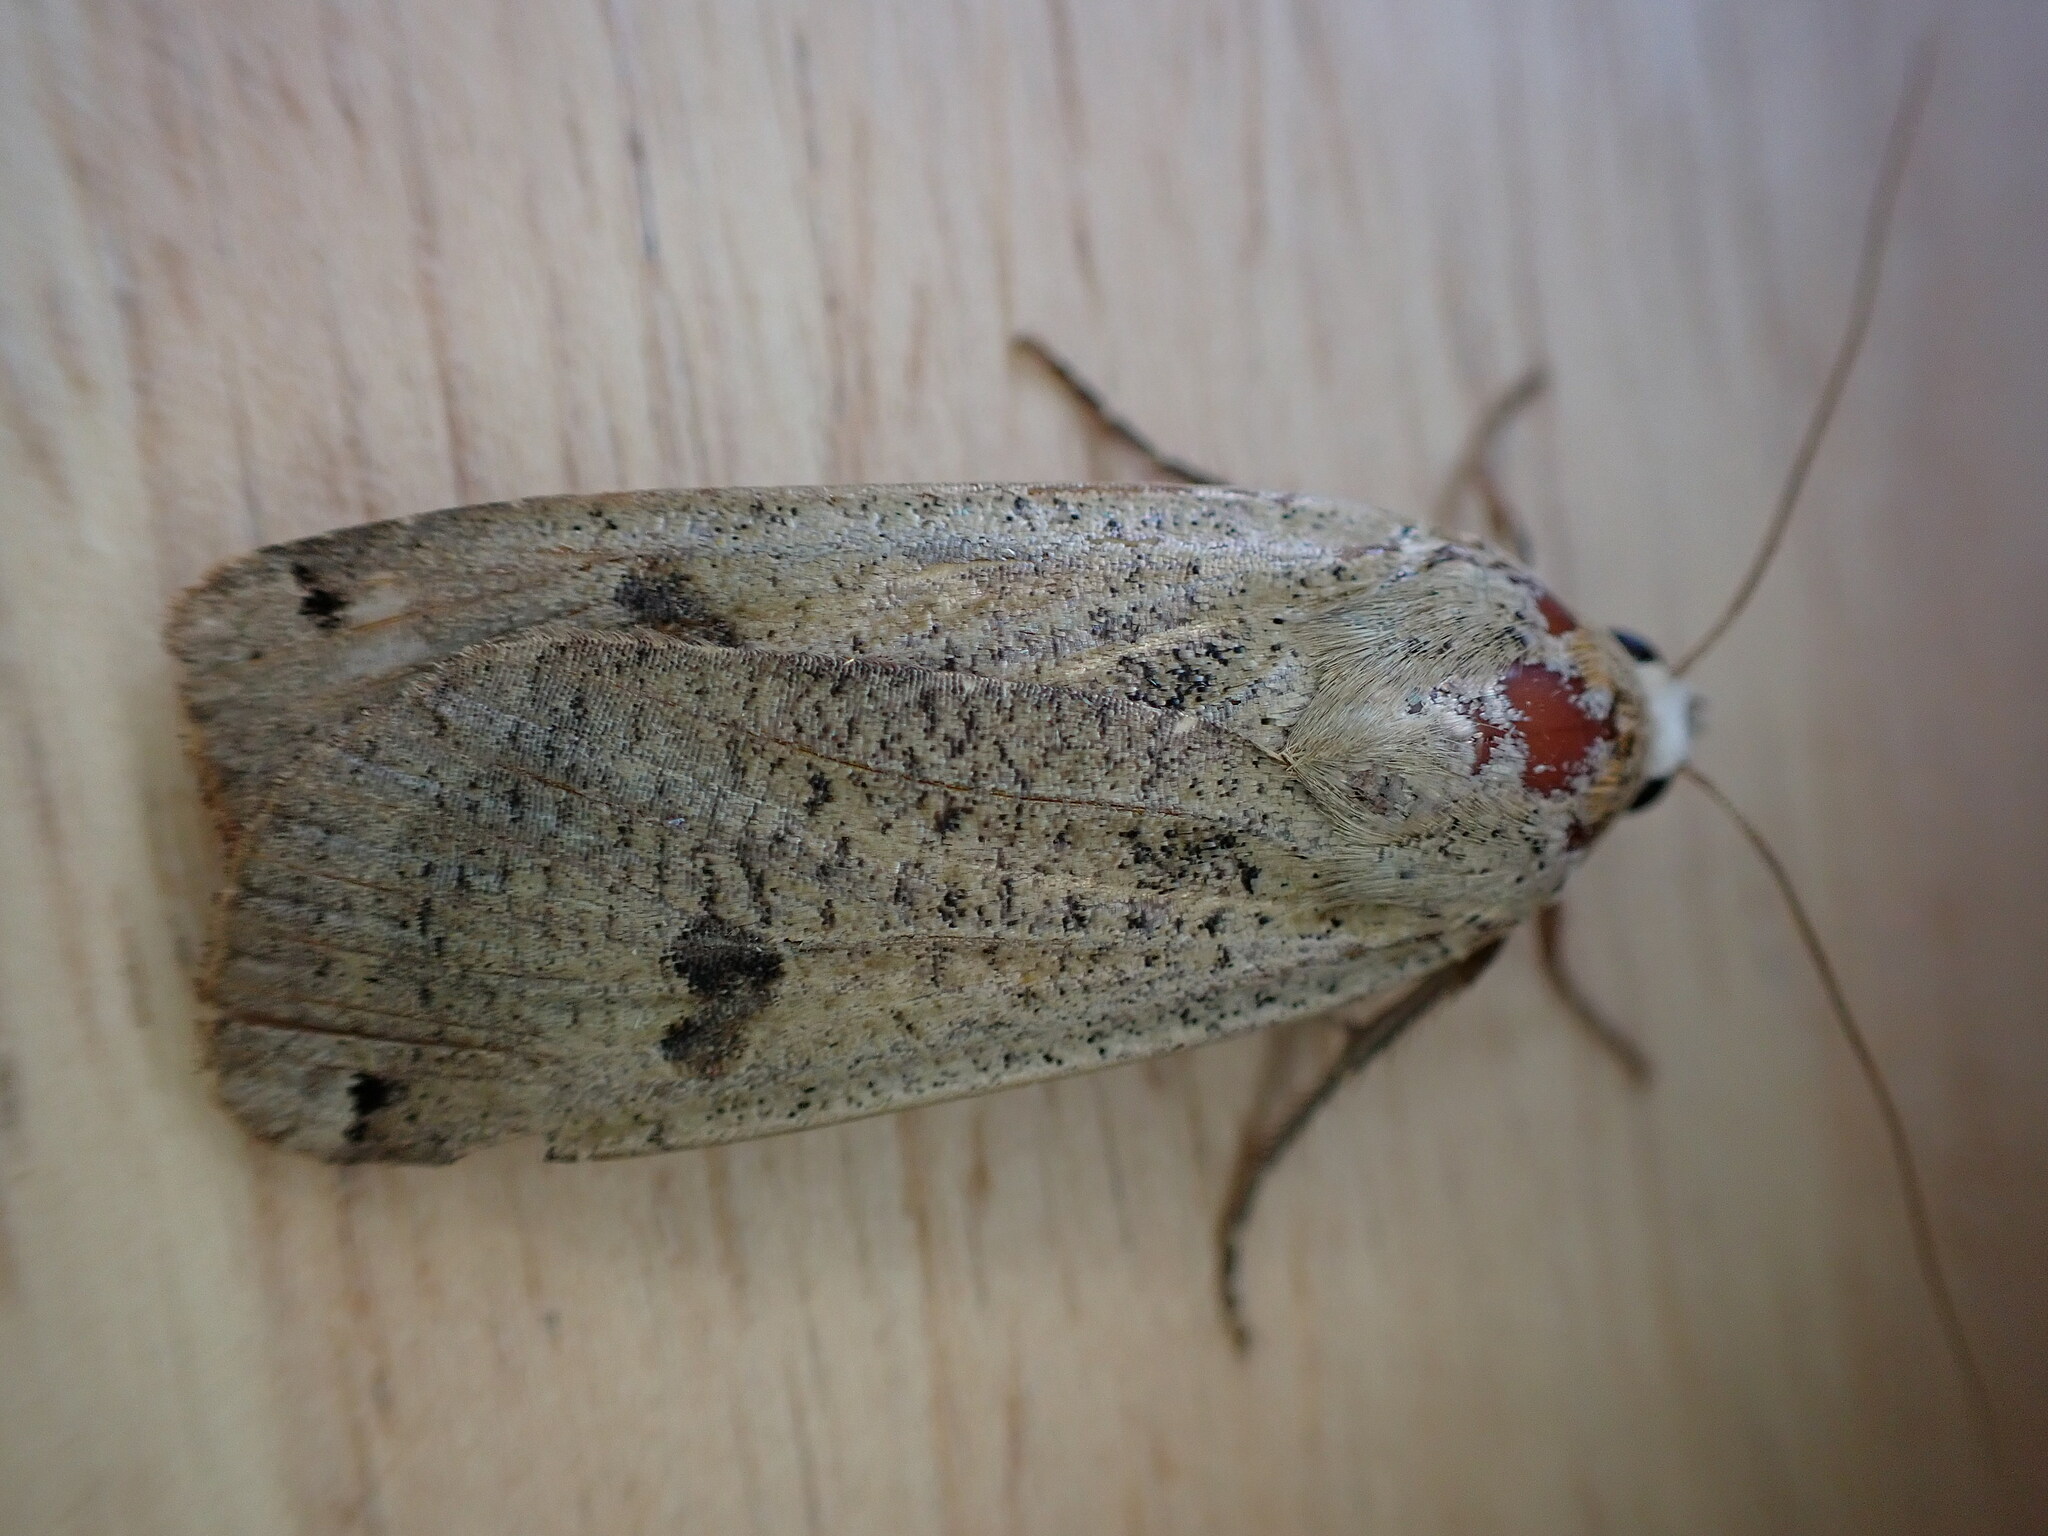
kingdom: Animalia
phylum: Arthropoda
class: Insecta
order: Lepidoptera
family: Noctuidae
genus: Noctua
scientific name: Noctua pronuba
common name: Large yellow underwing
